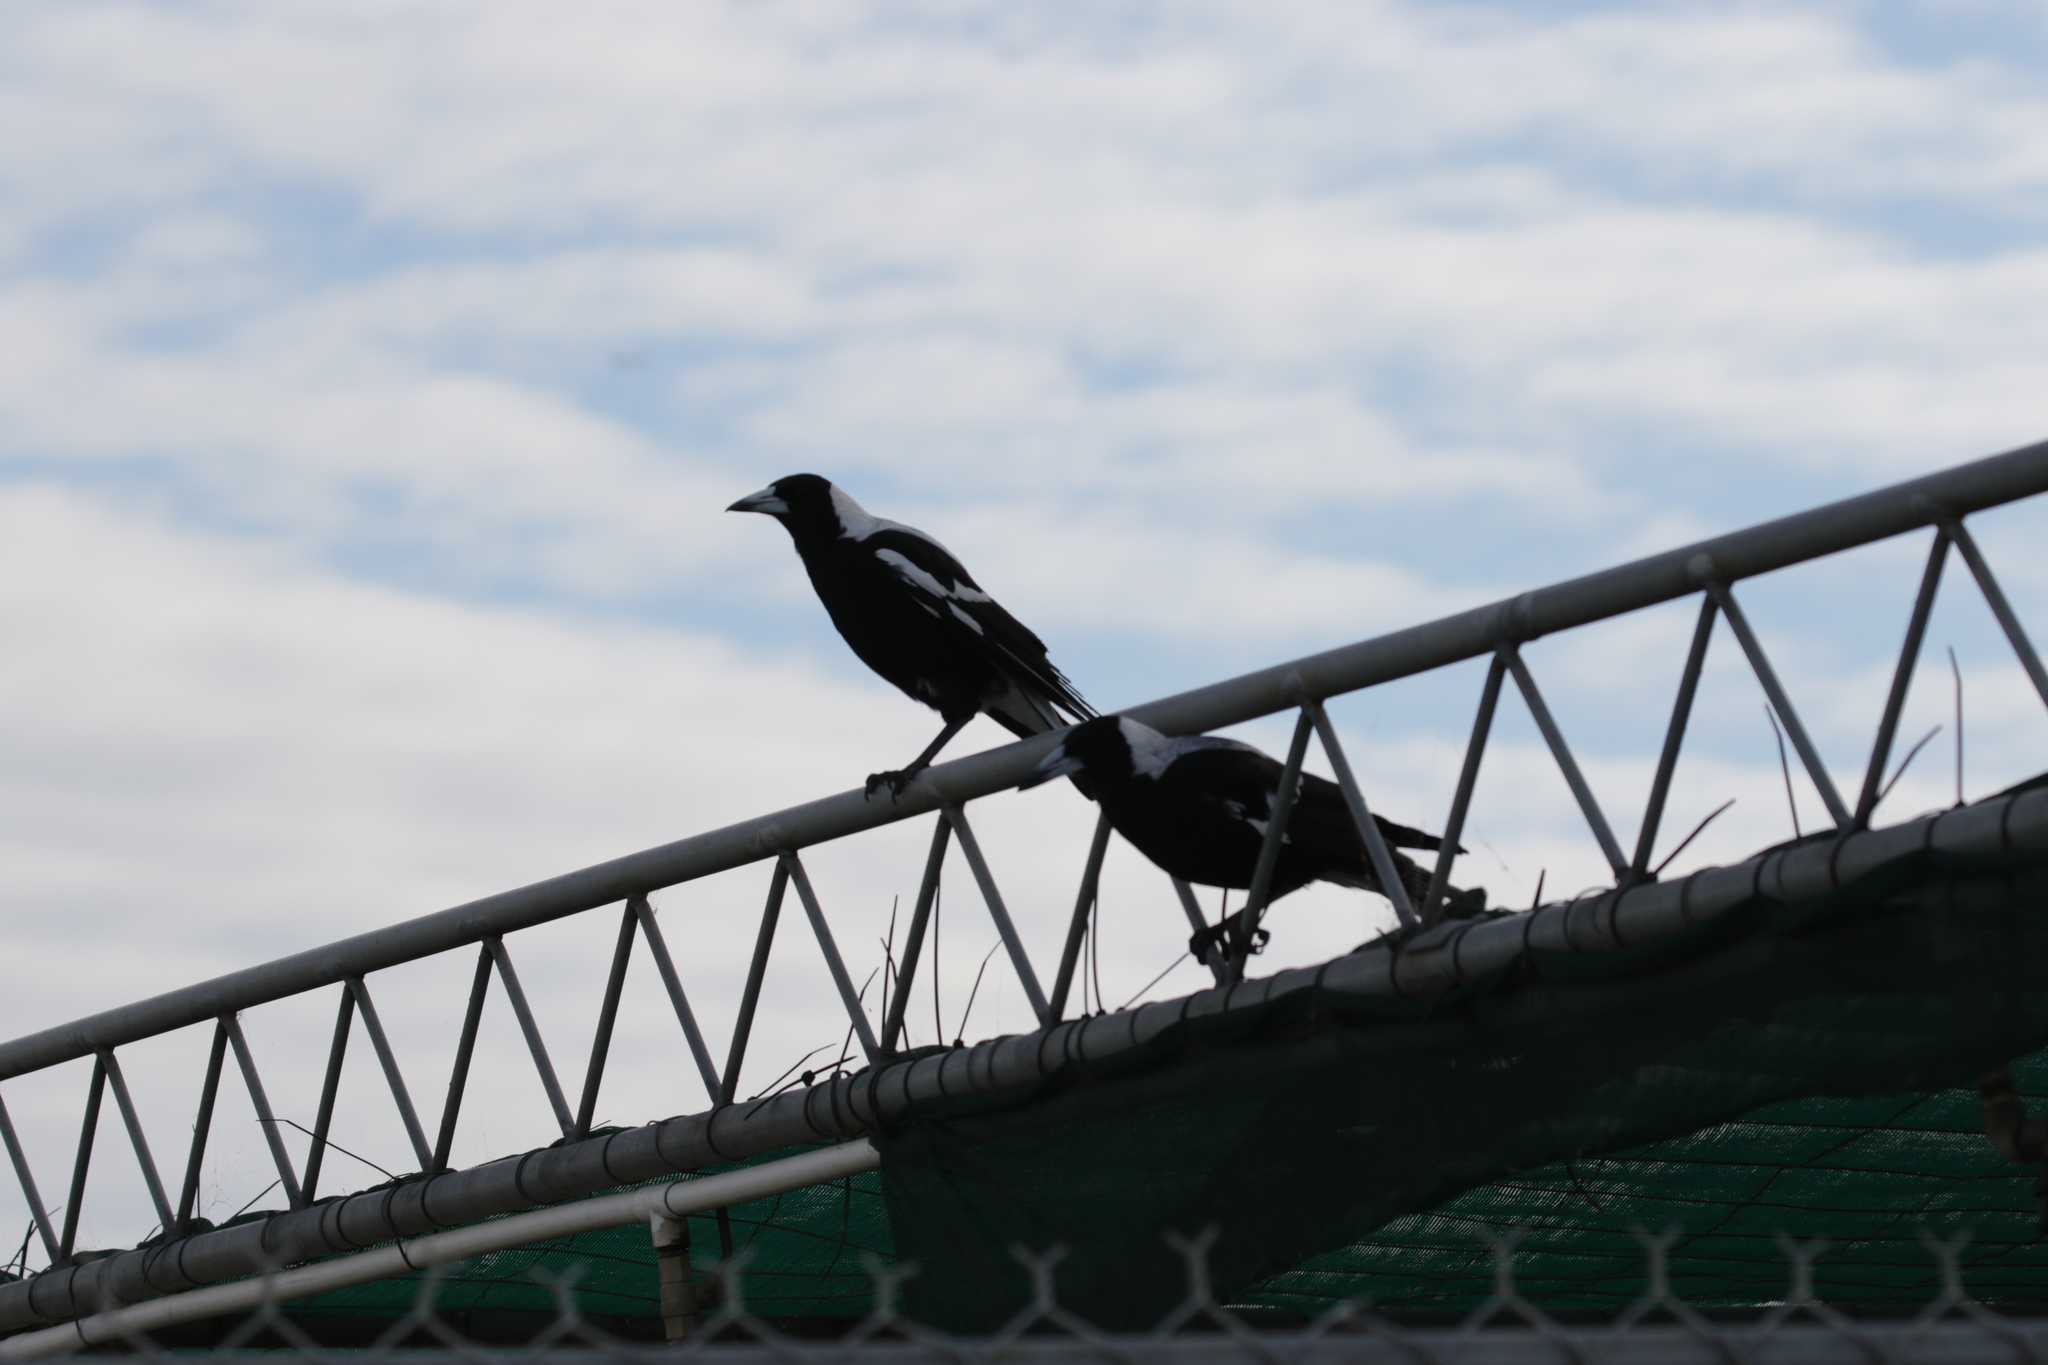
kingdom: Animalia
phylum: Chordata
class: Aves
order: Passeriformes
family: Cracticidae
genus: Gymnorhina
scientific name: Gymnorhina tibicen
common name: Australian magpie
